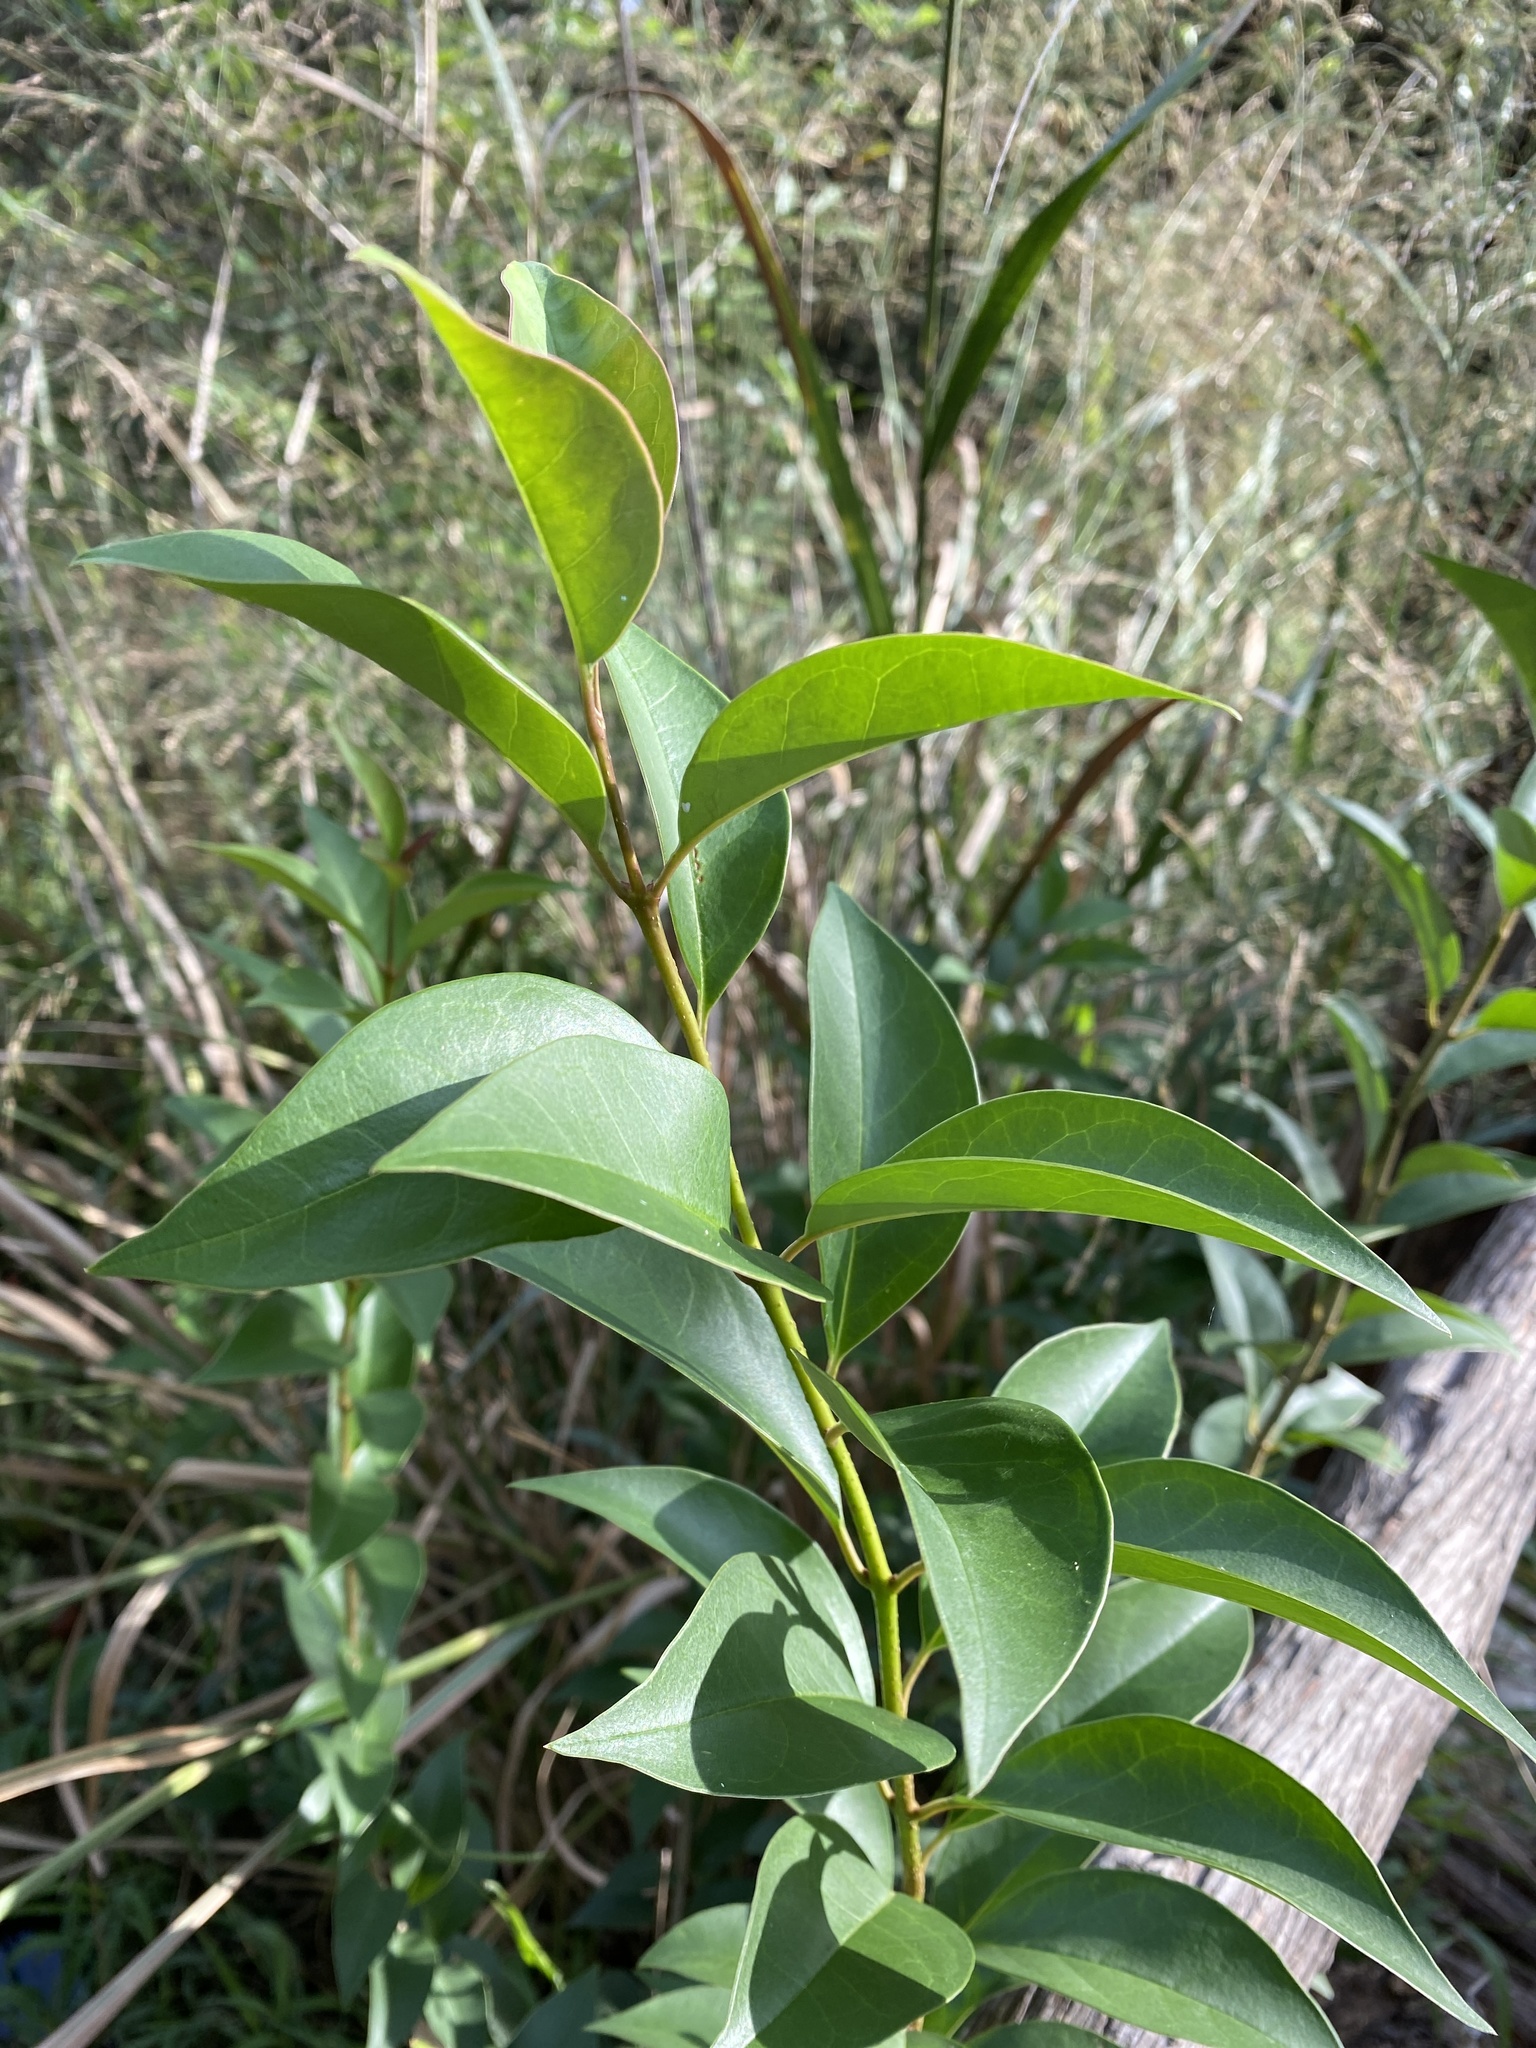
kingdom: Plantae
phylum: Tracheophyta
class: Magnoliopsida
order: Lamiales
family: Oleaceae
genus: Ligustrum
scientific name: Ligustrum lucidum
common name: Glossy privet
